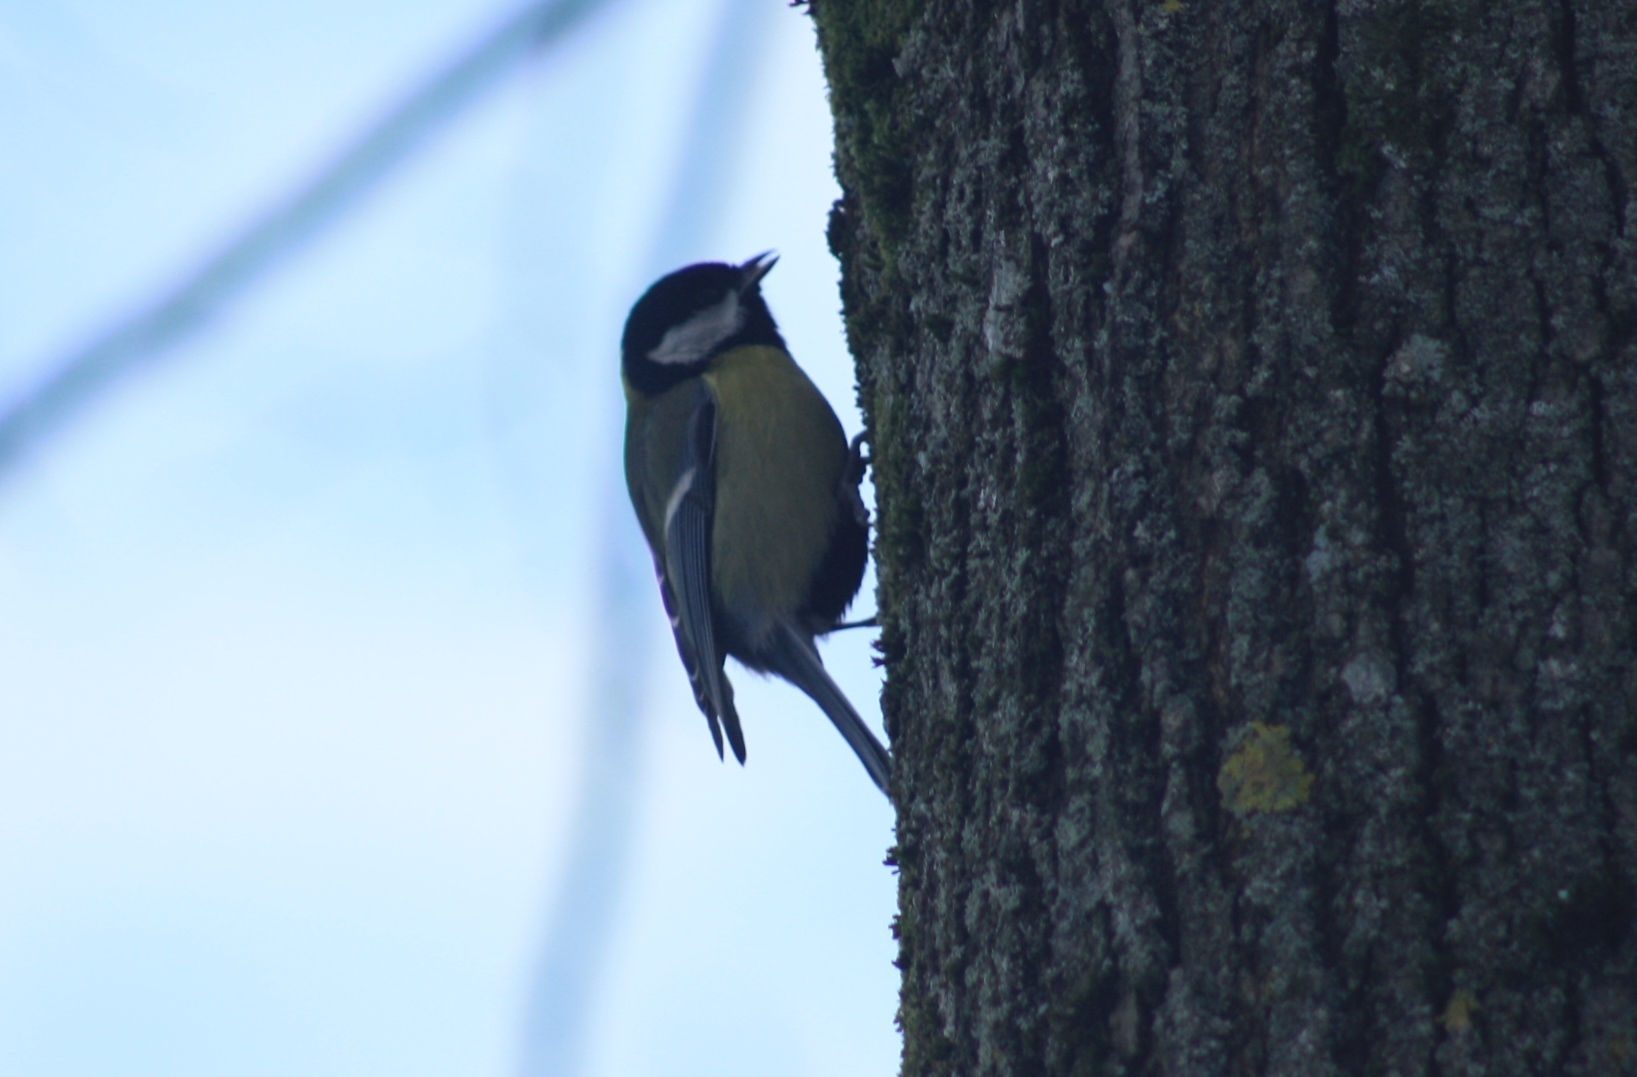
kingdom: Animalia
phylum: Chordata
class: Aves
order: Passeriformes
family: Paridae
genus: Parus
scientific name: Parus major
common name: Great tit
